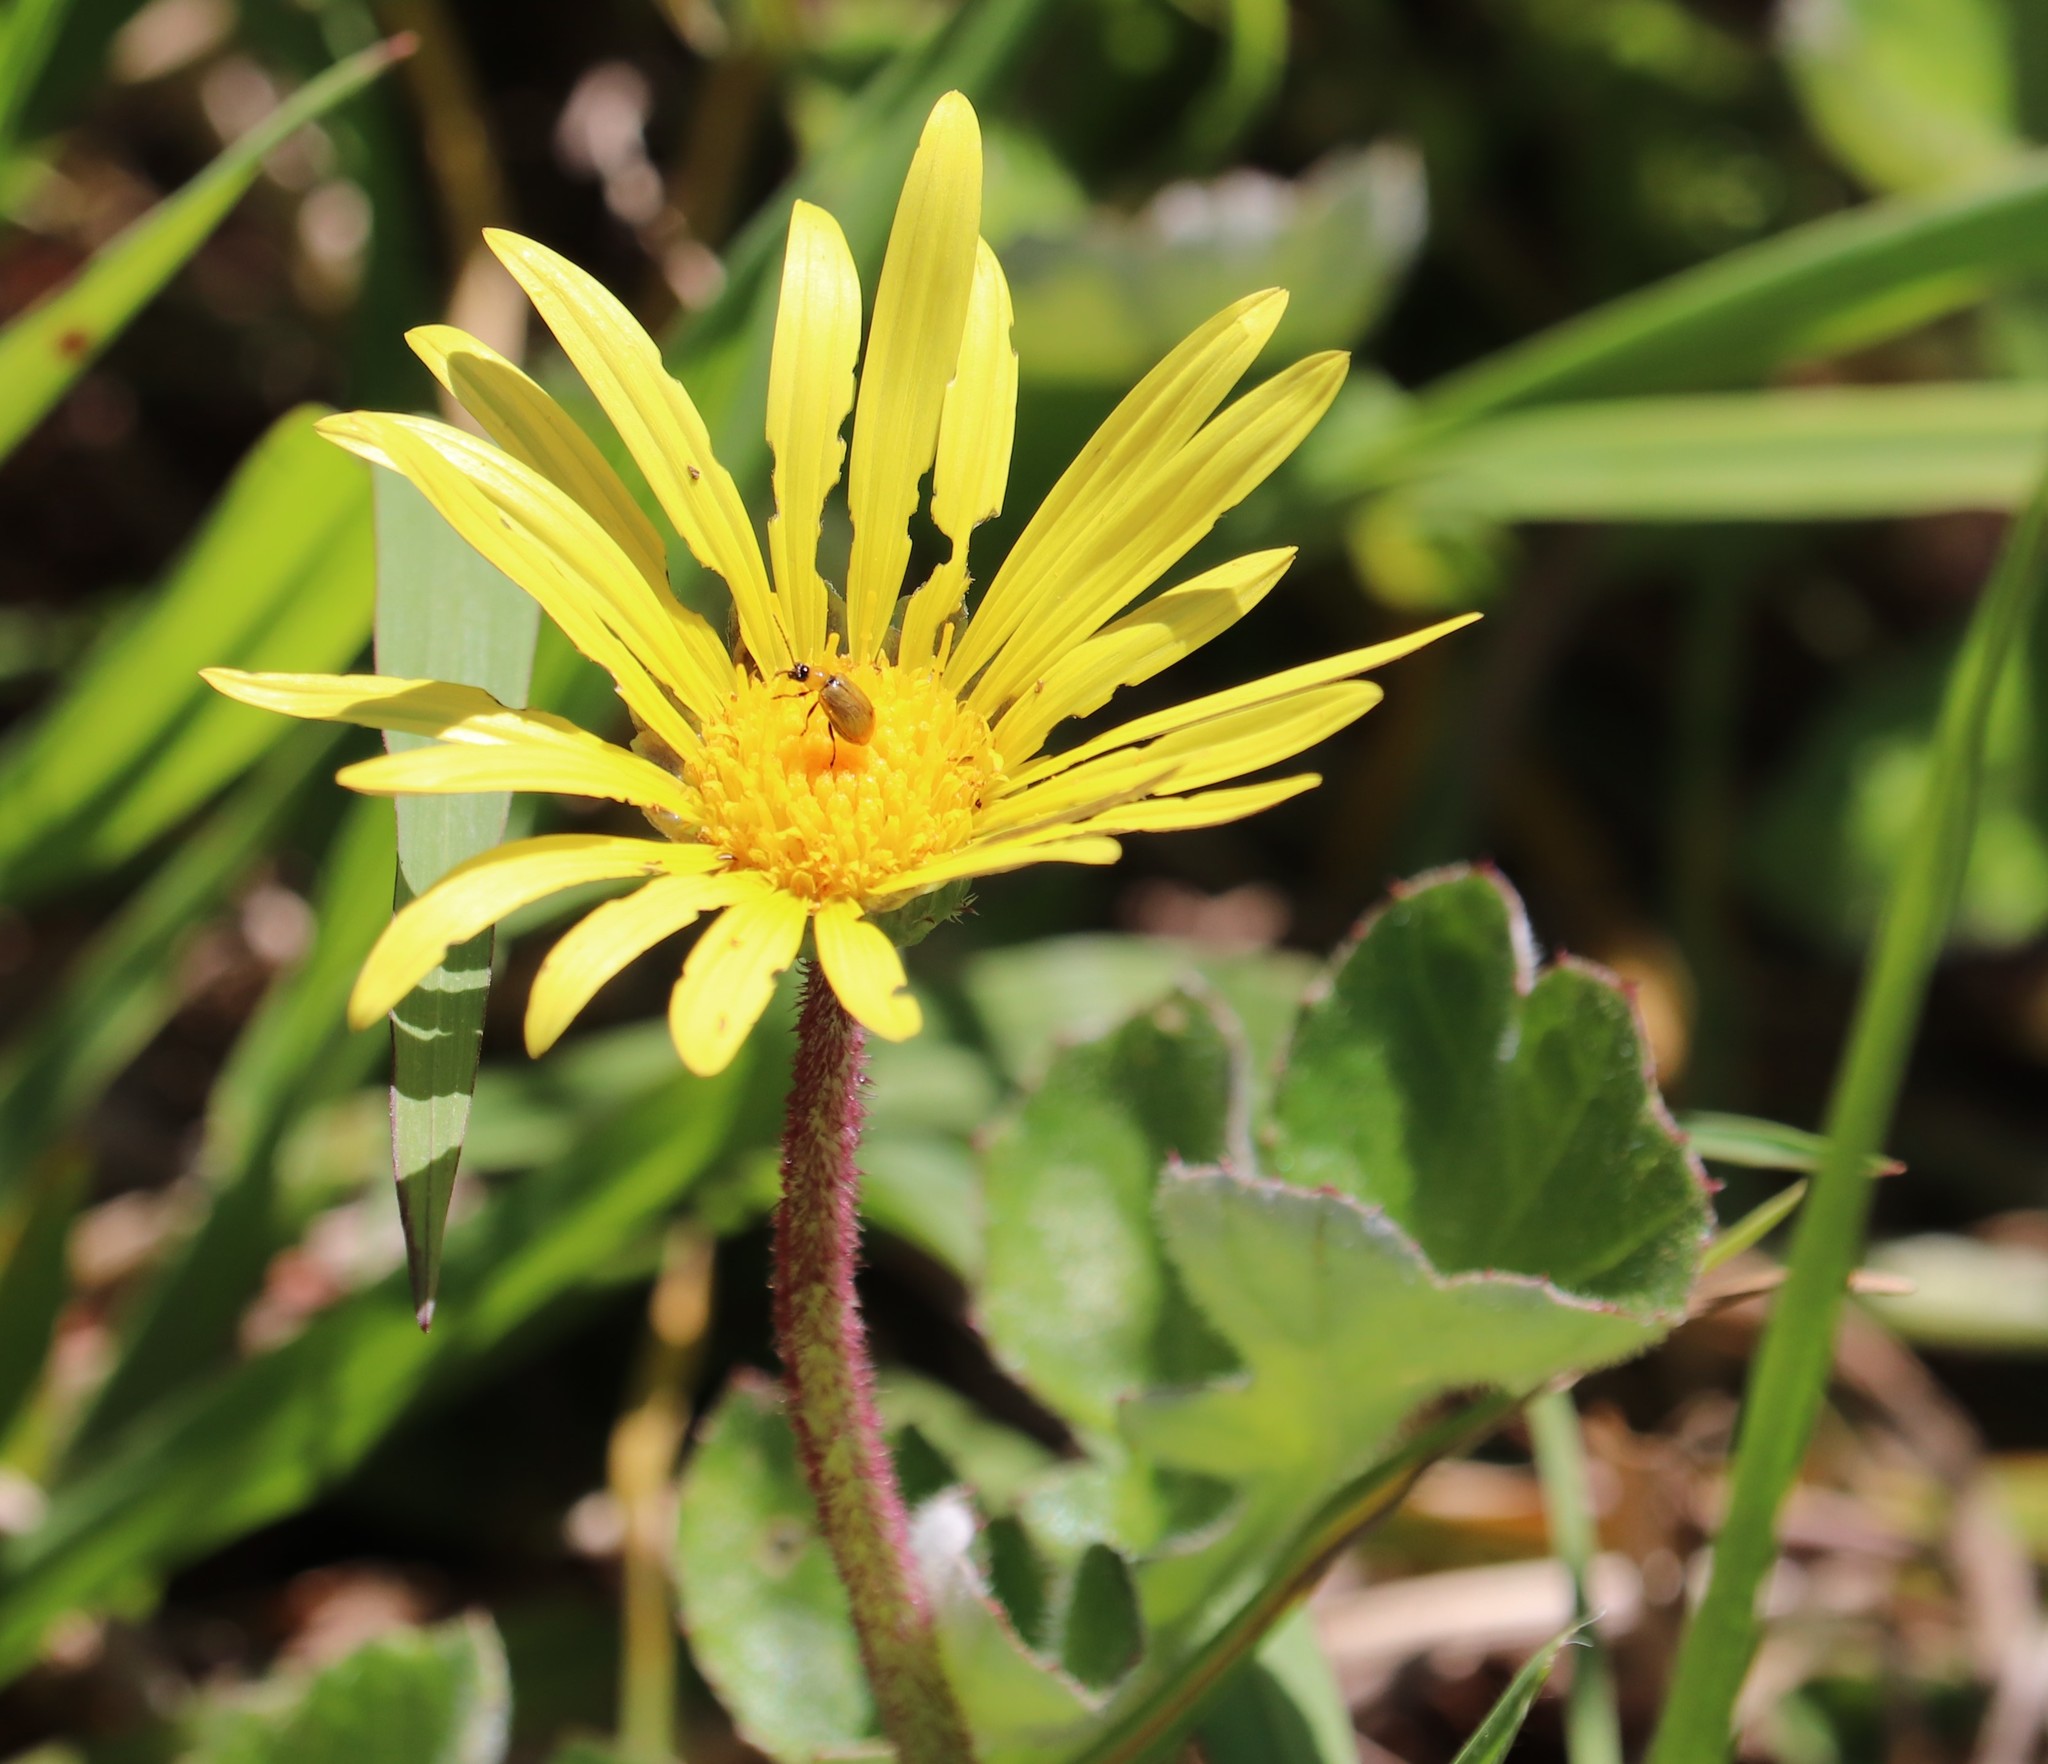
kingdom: Plantae
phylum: Tracheophyta
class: Magnoliopsida
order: Asterales
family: Asteraceae
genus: Arctotheca
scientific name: Arctotheca prostrata
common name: Capeweed
